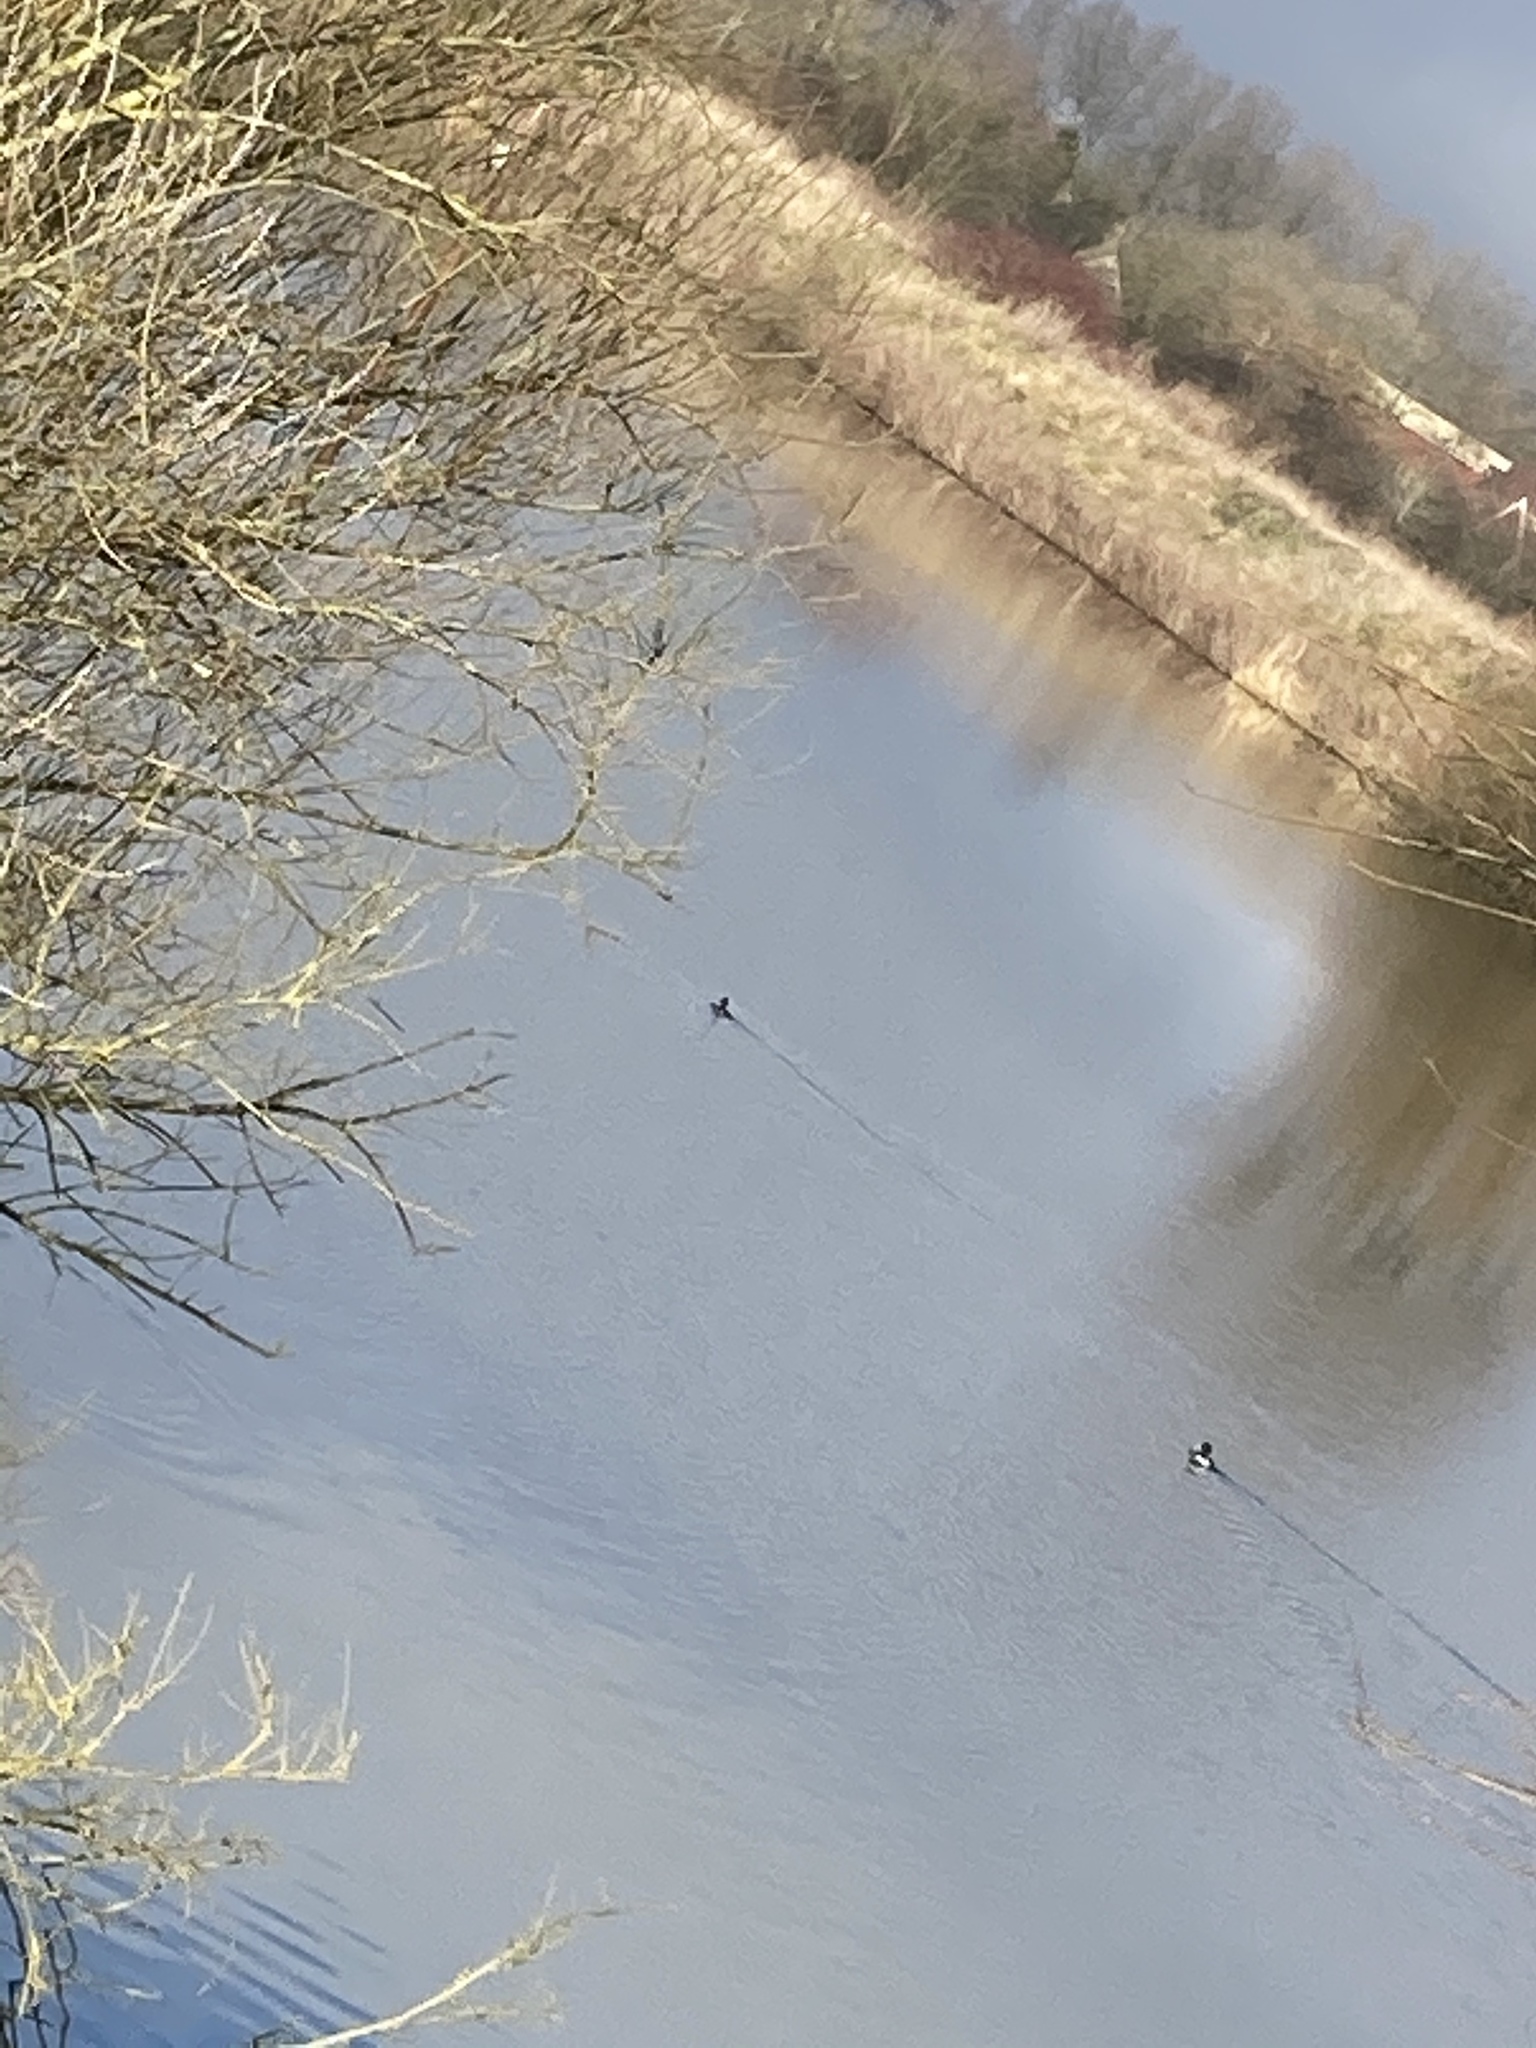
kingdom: Animalia
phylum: Chordata
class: Aves
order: Anseriformes
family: Anatidae
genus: Aythya
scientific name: Aythya fuligula
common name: Tufted duck
